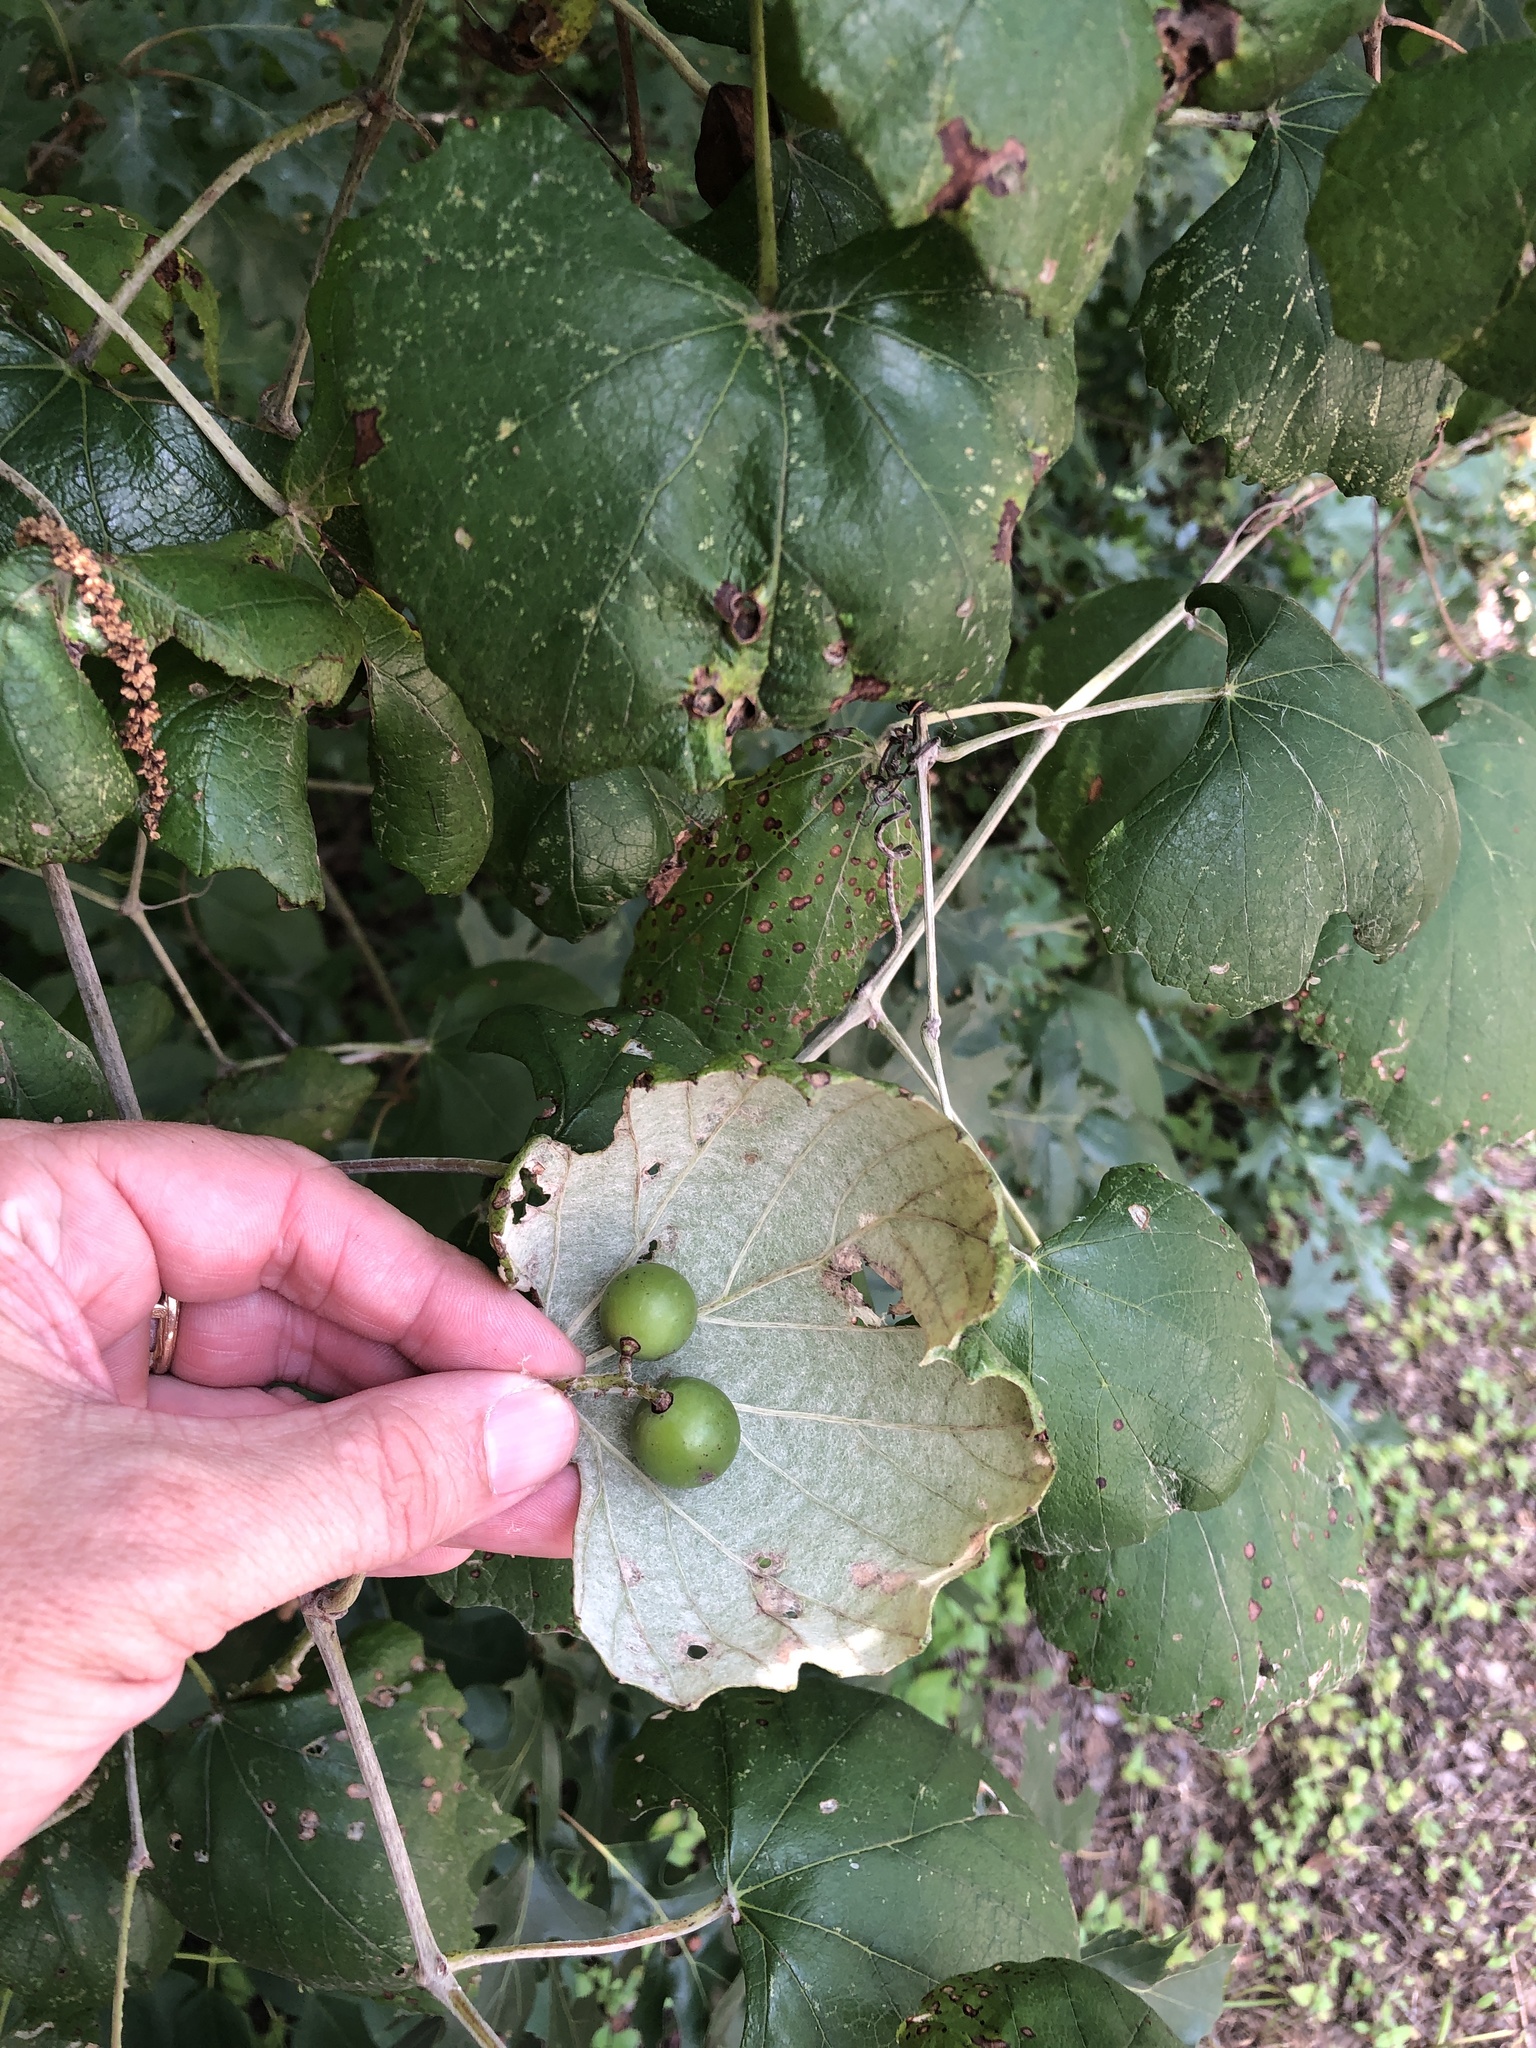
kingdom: Plantae
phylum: Tracheophyta
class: Magnoliopsida
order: Vitales
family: Vitaceae
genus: Vitis
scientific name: Vitis mustangensis
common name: Mustang grape
